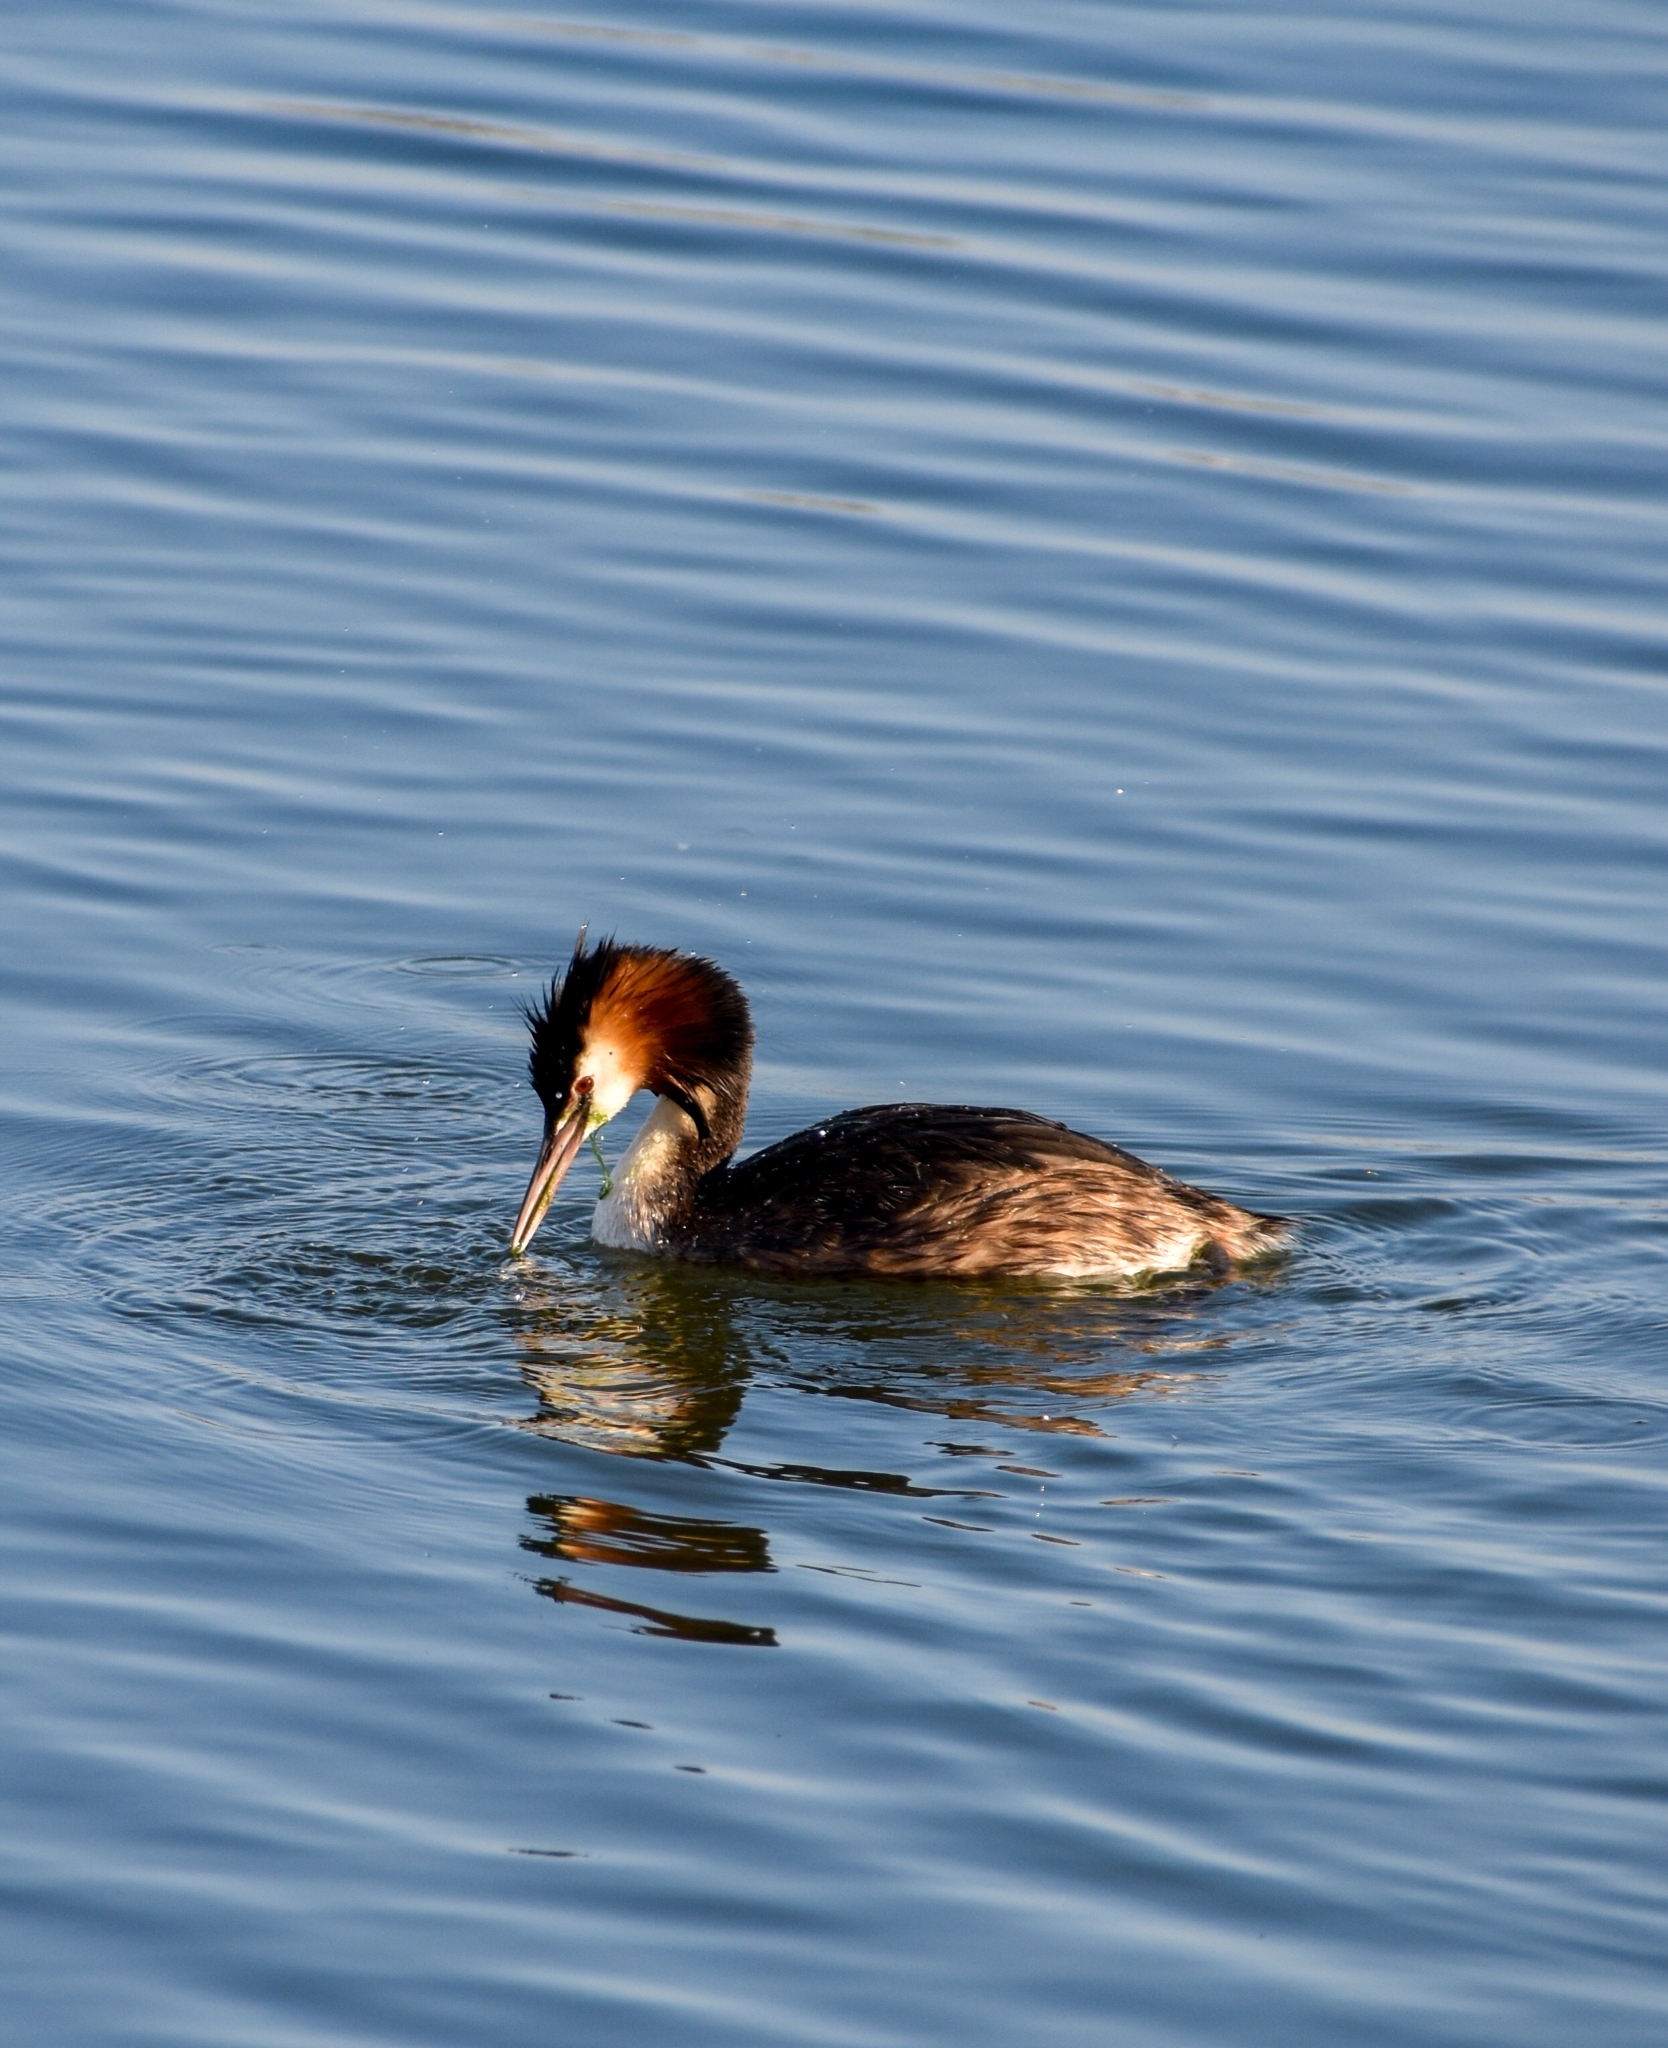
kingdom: Animalia
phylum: Chordata
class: Aves
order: Podicipediformes
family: Podicipedidae
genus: Podiceps
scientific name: Podiceps cristatus
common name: Great crested grebe
